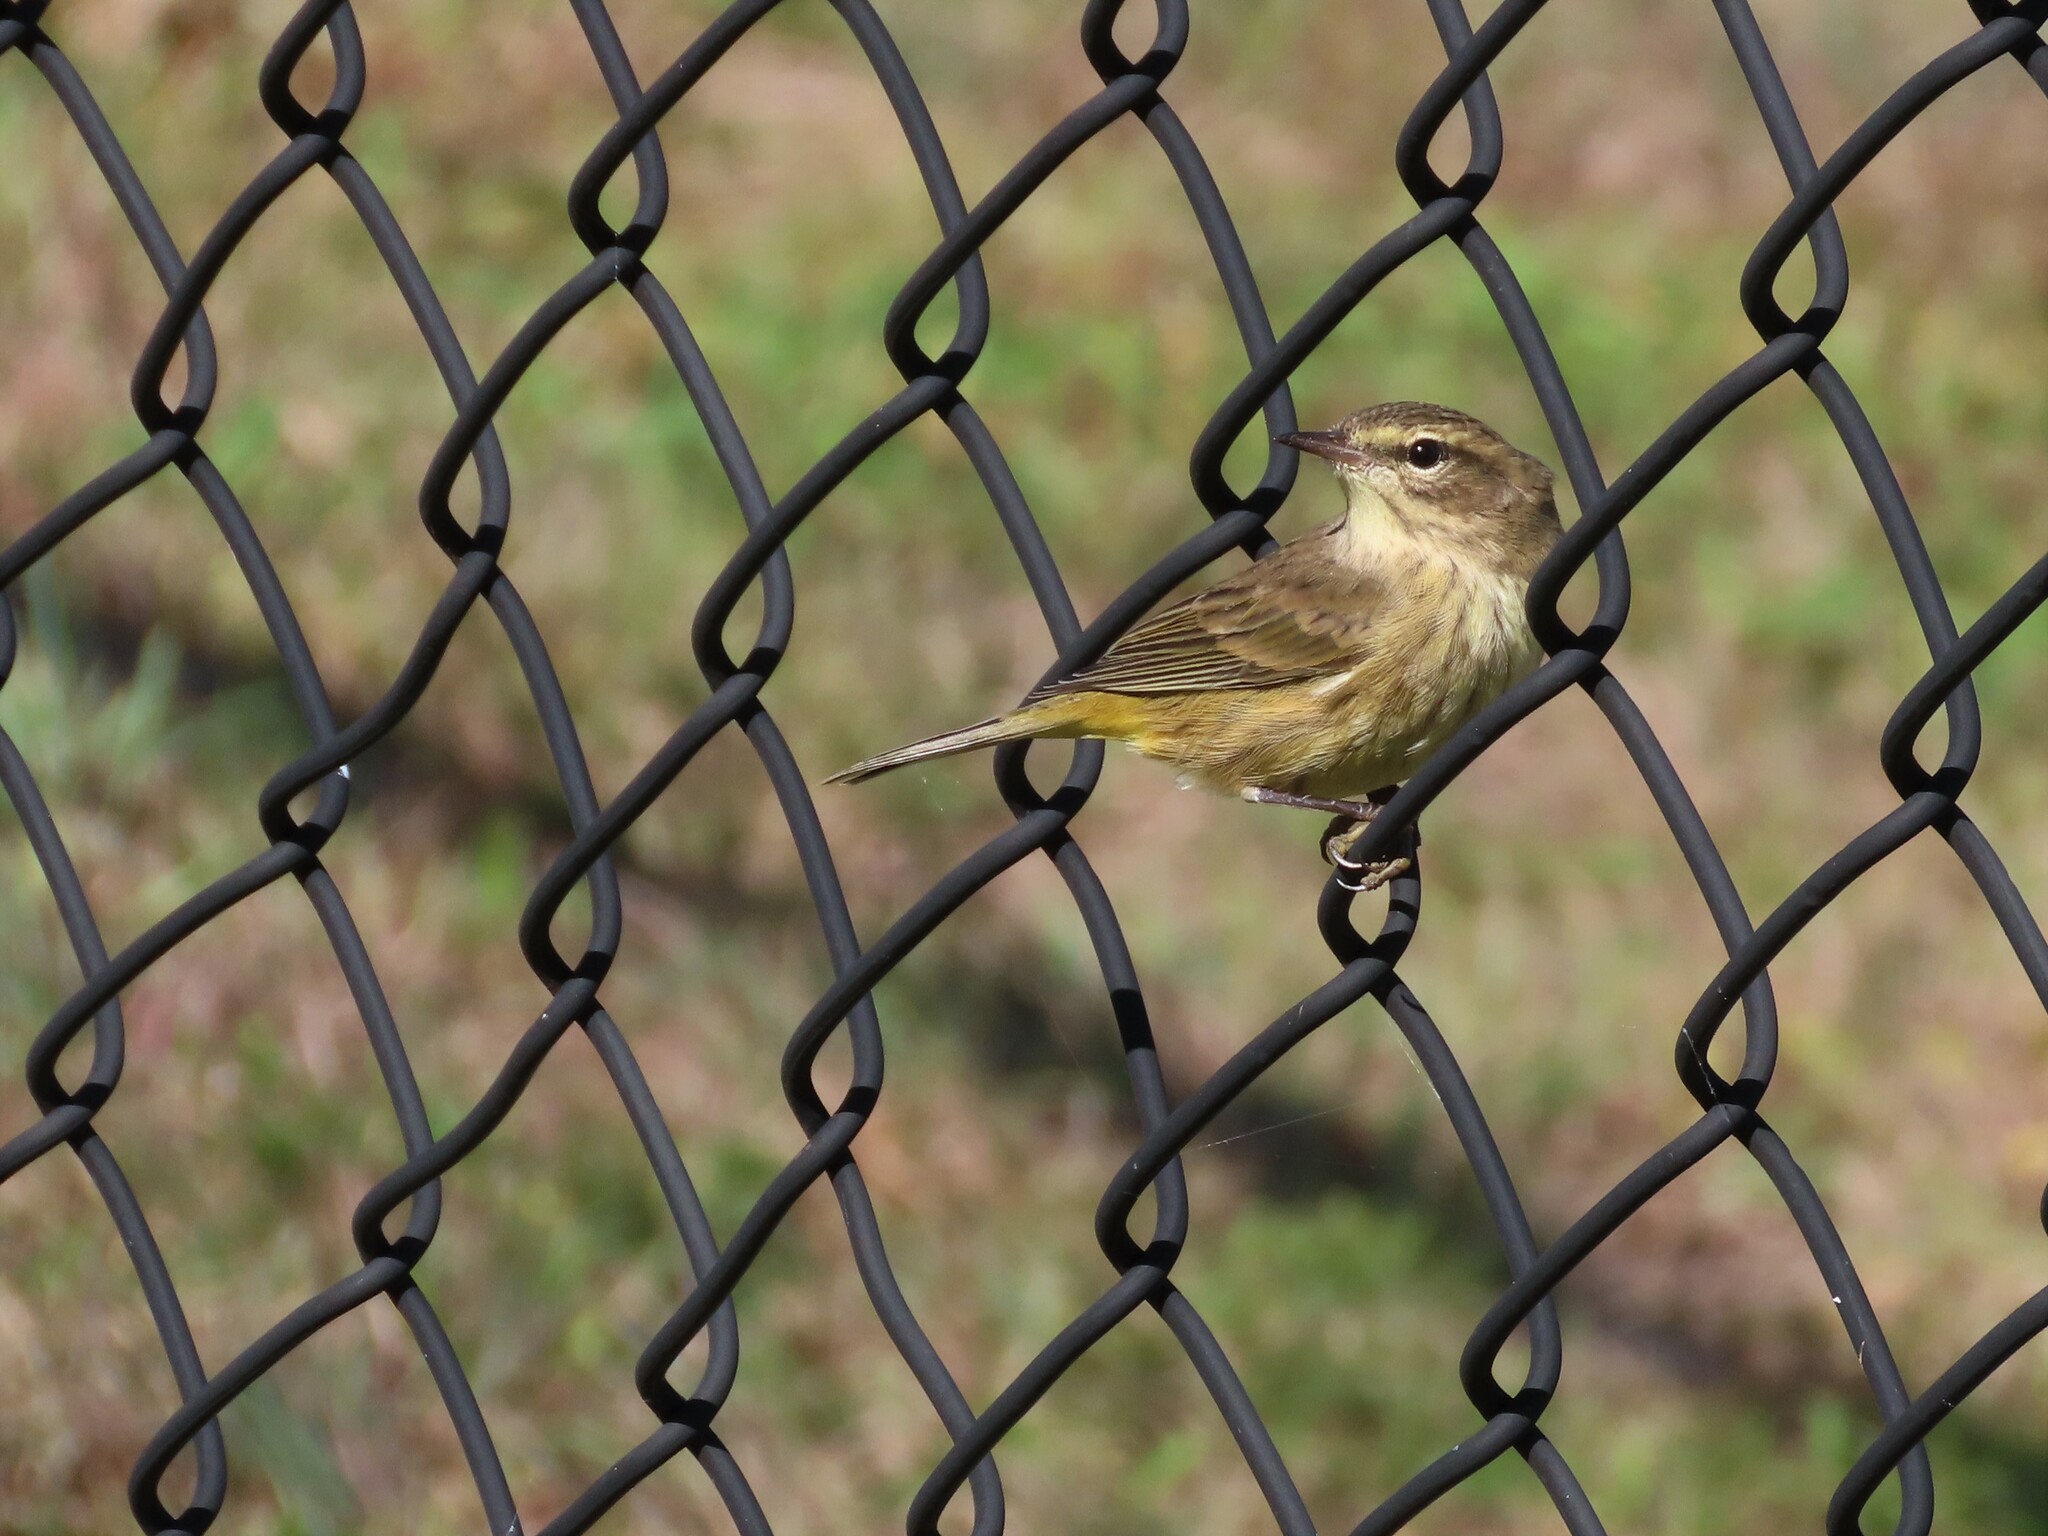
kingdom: Animalia
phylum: Chordata
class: Aves
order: Passeriformes
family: Parulidae
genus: Setophaga
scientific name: Setophaga palmarum
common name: Palm warbler
